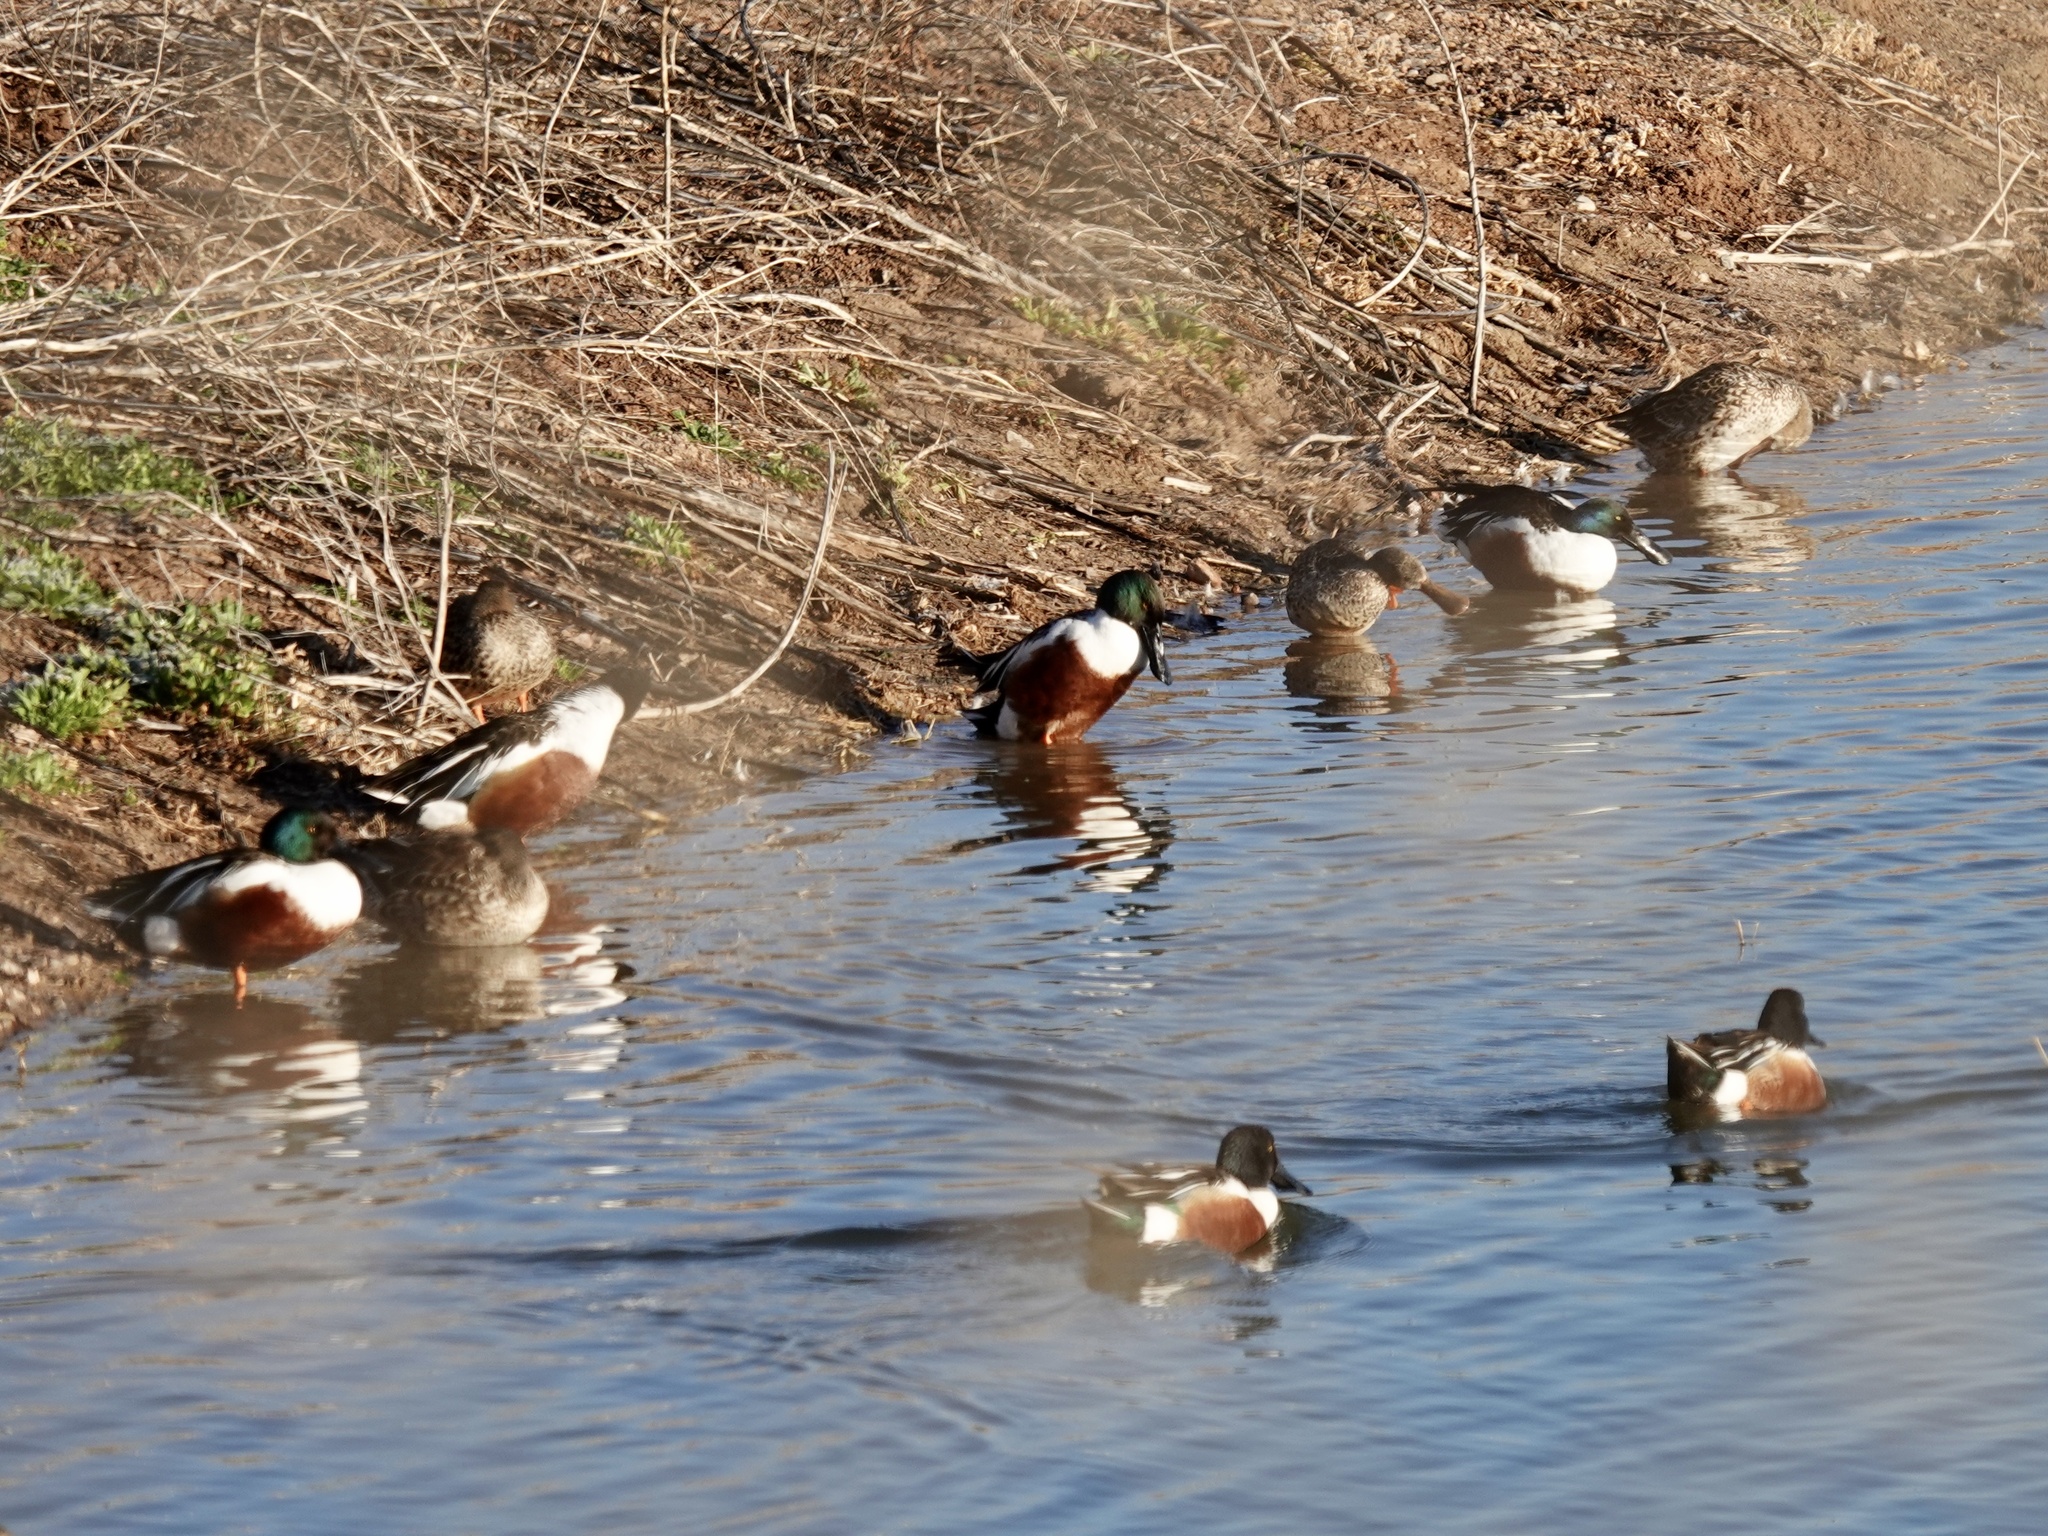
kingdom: Animalia
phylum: Chordata
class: Aves
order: Anseriformes
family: Anatidae
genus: Spatula
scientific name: Spatula clypeata
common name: Northern shoveler
